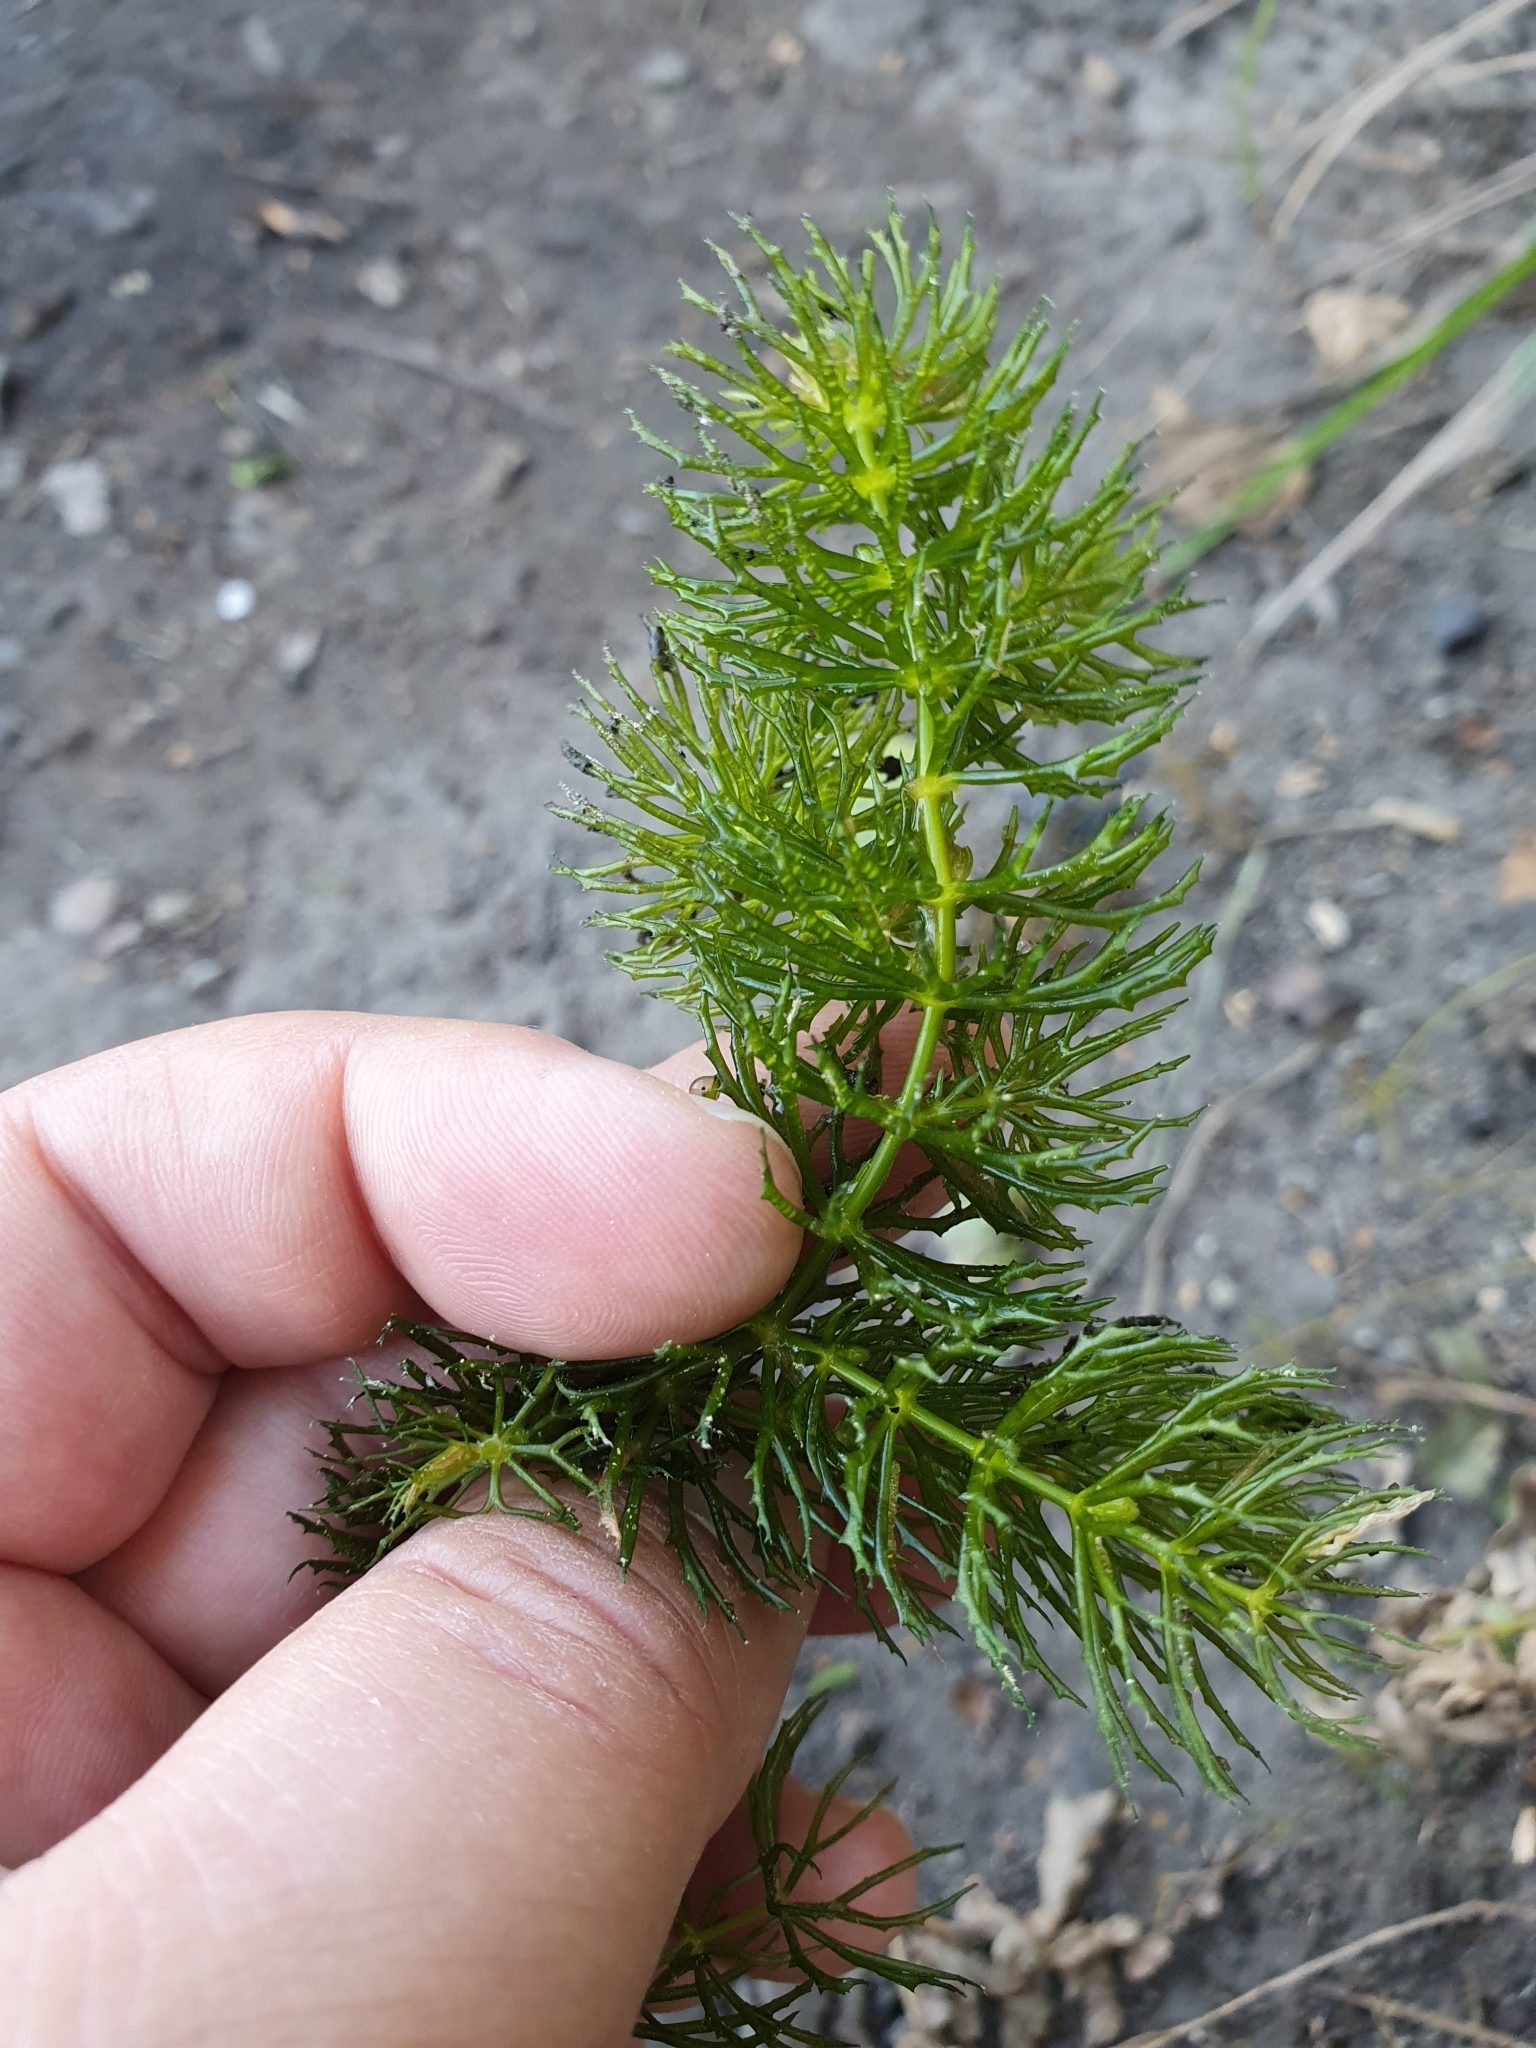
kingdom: Plantae
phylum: Tracheophyta
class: Magnoliopsida
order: Ceratophyllales
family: Ceratophyllaceae
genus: Ceratophyllum
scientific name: Ceratophyllum demersum
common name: Rigid hornwort
